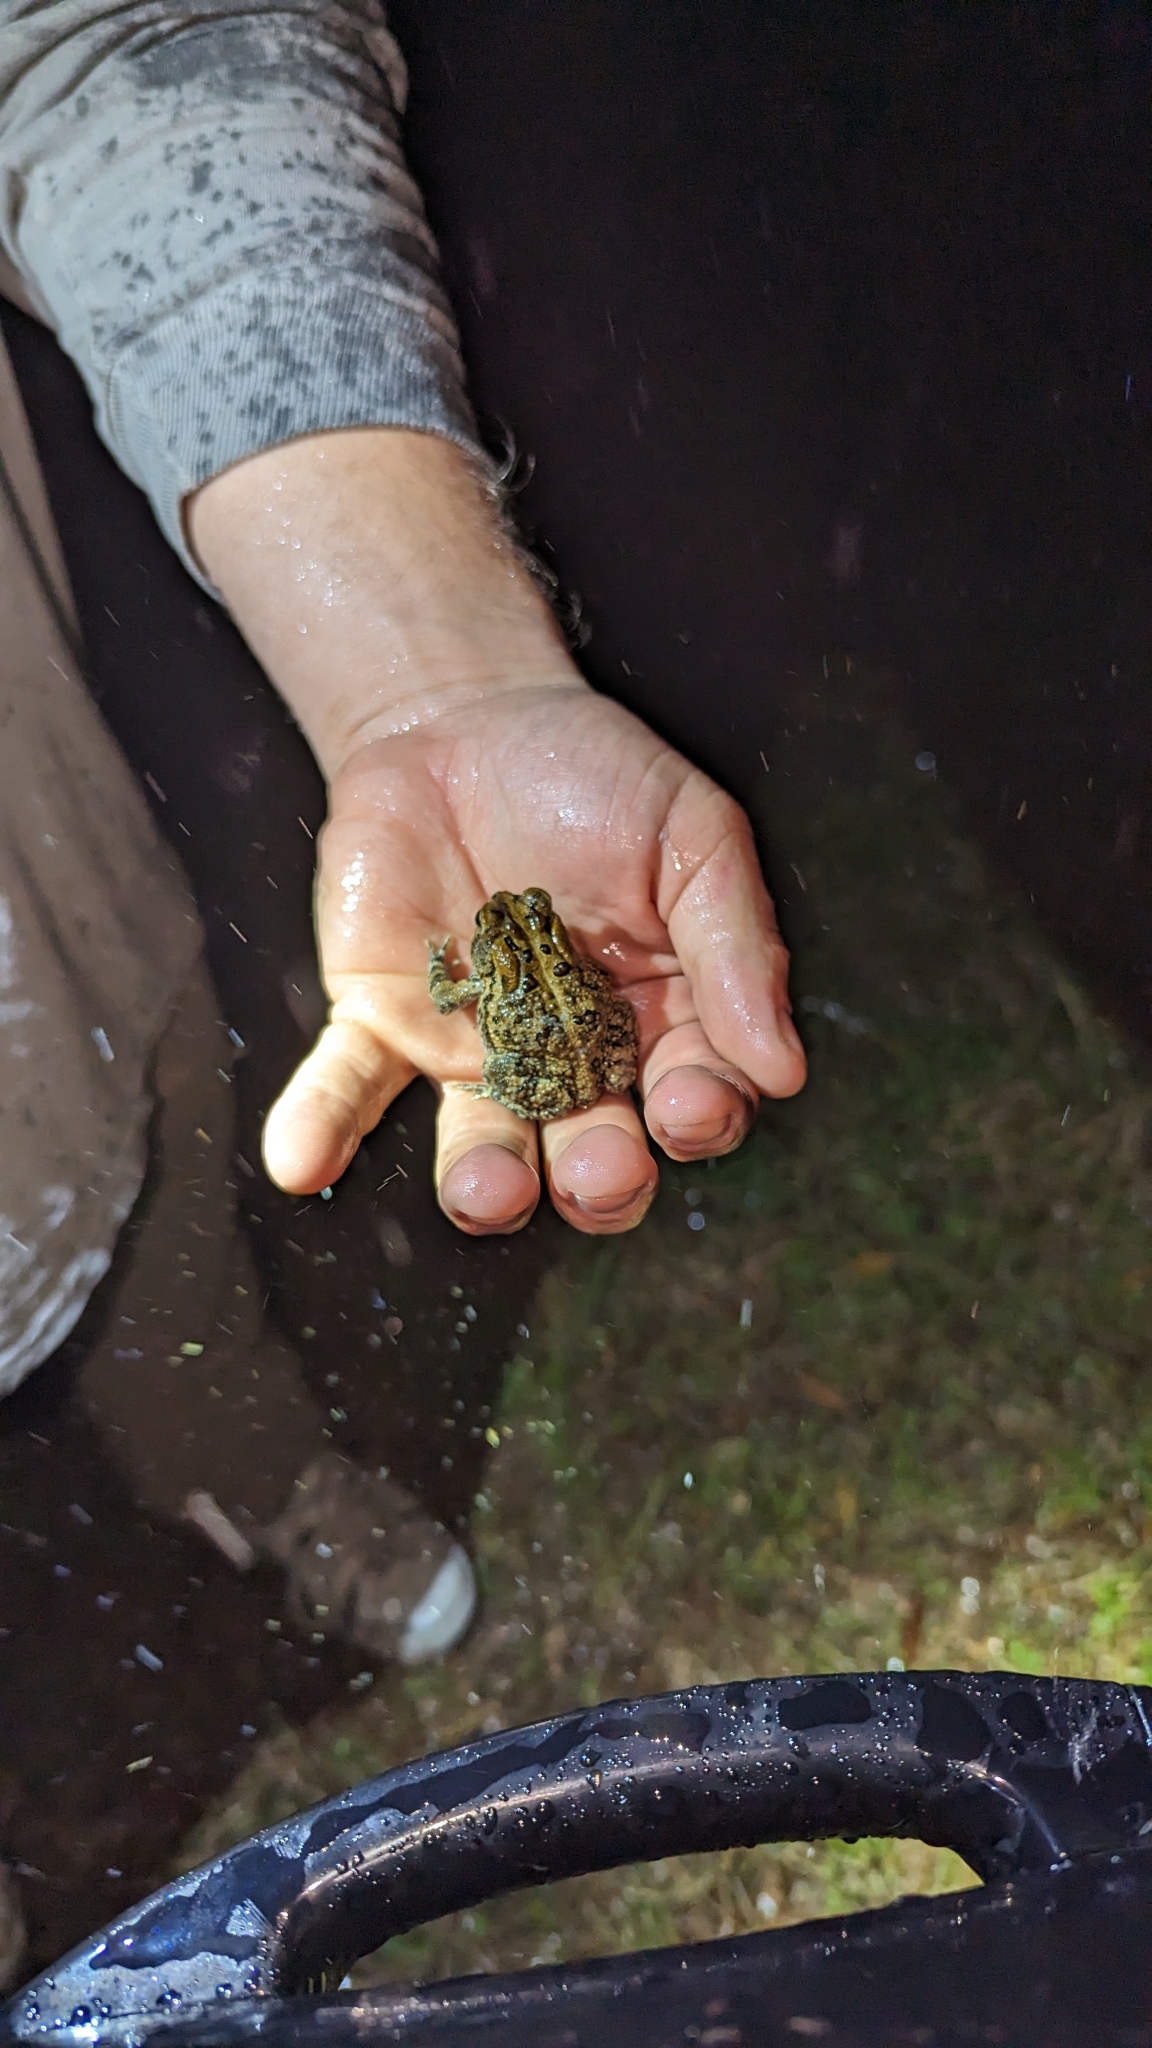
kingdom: Animalia
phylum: Chordata
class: Amphibia
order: Anura
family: Bufonidae
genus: Anaxyrus
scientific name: Anaxyrus terrestris
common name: Southern toad
